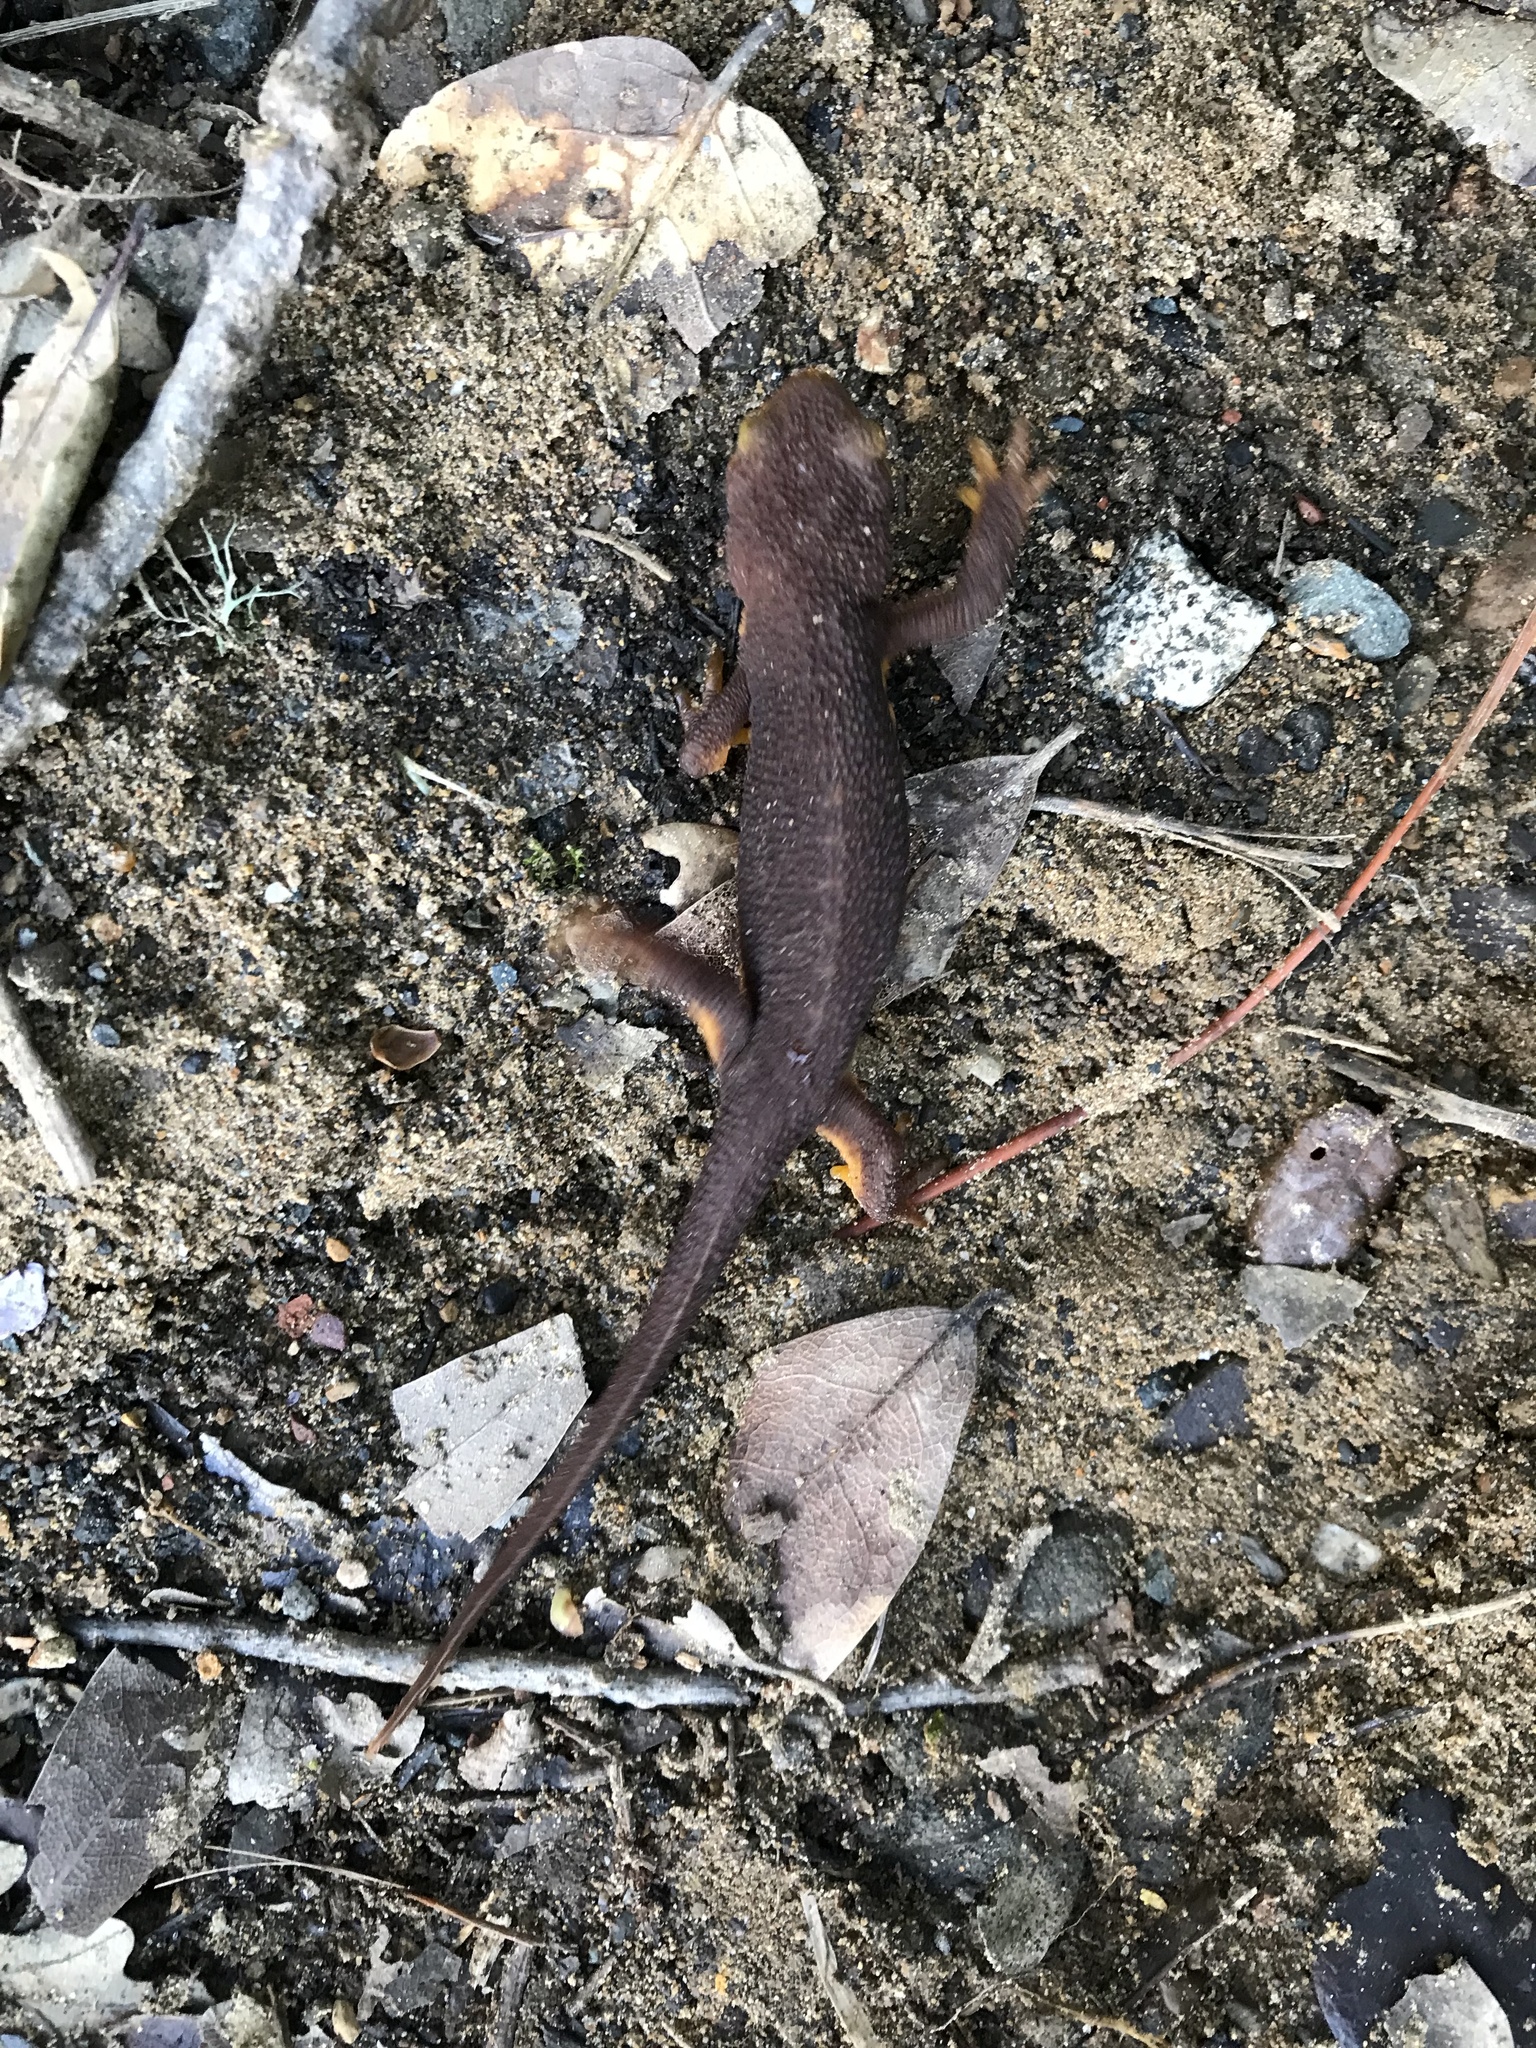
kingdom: Animalia
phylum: Chordata
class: Amphibia
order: Caudata
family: Salamandridae
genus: Taricha
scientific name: Taricha torosa
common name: California newt
